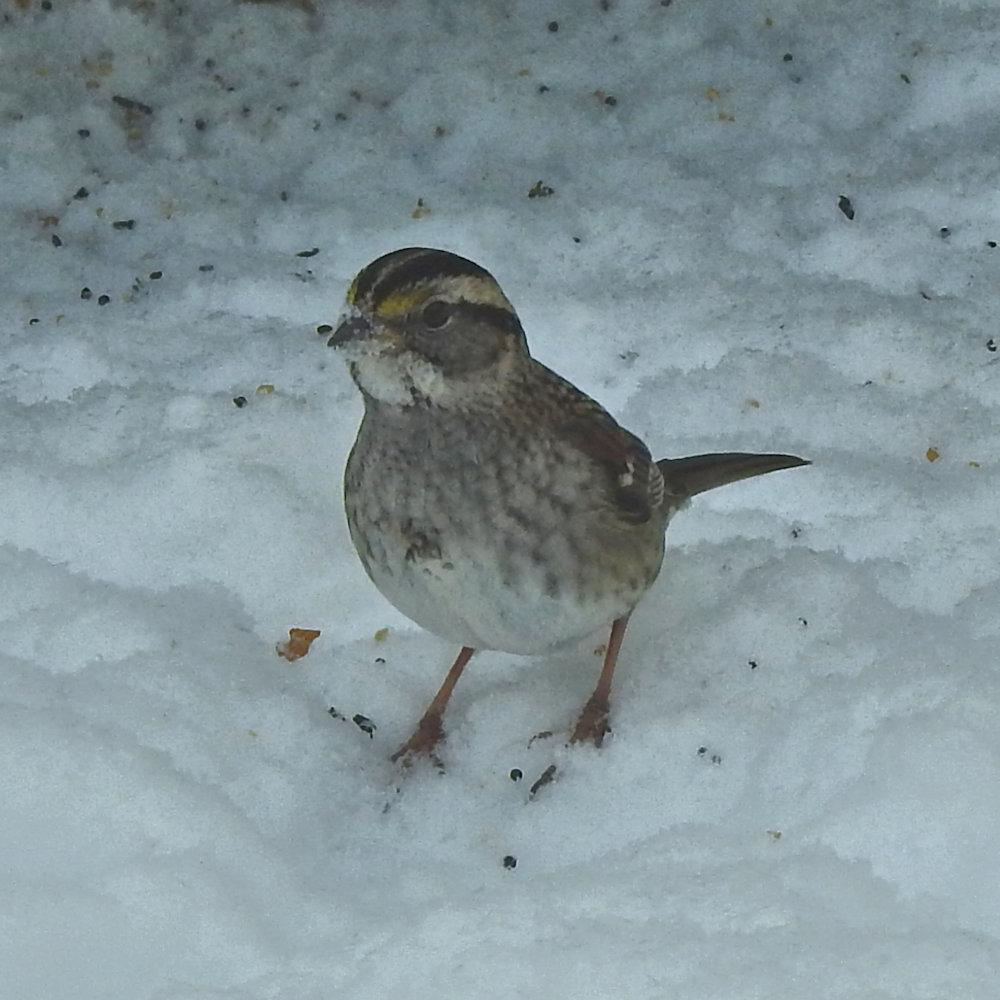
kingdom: Animalia
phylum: Chordata
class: Aves
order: Passeriformes
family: Passerellidae
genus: Zonotrichia
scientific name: Zonotrichia albicollis
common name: White-throated sparrow
